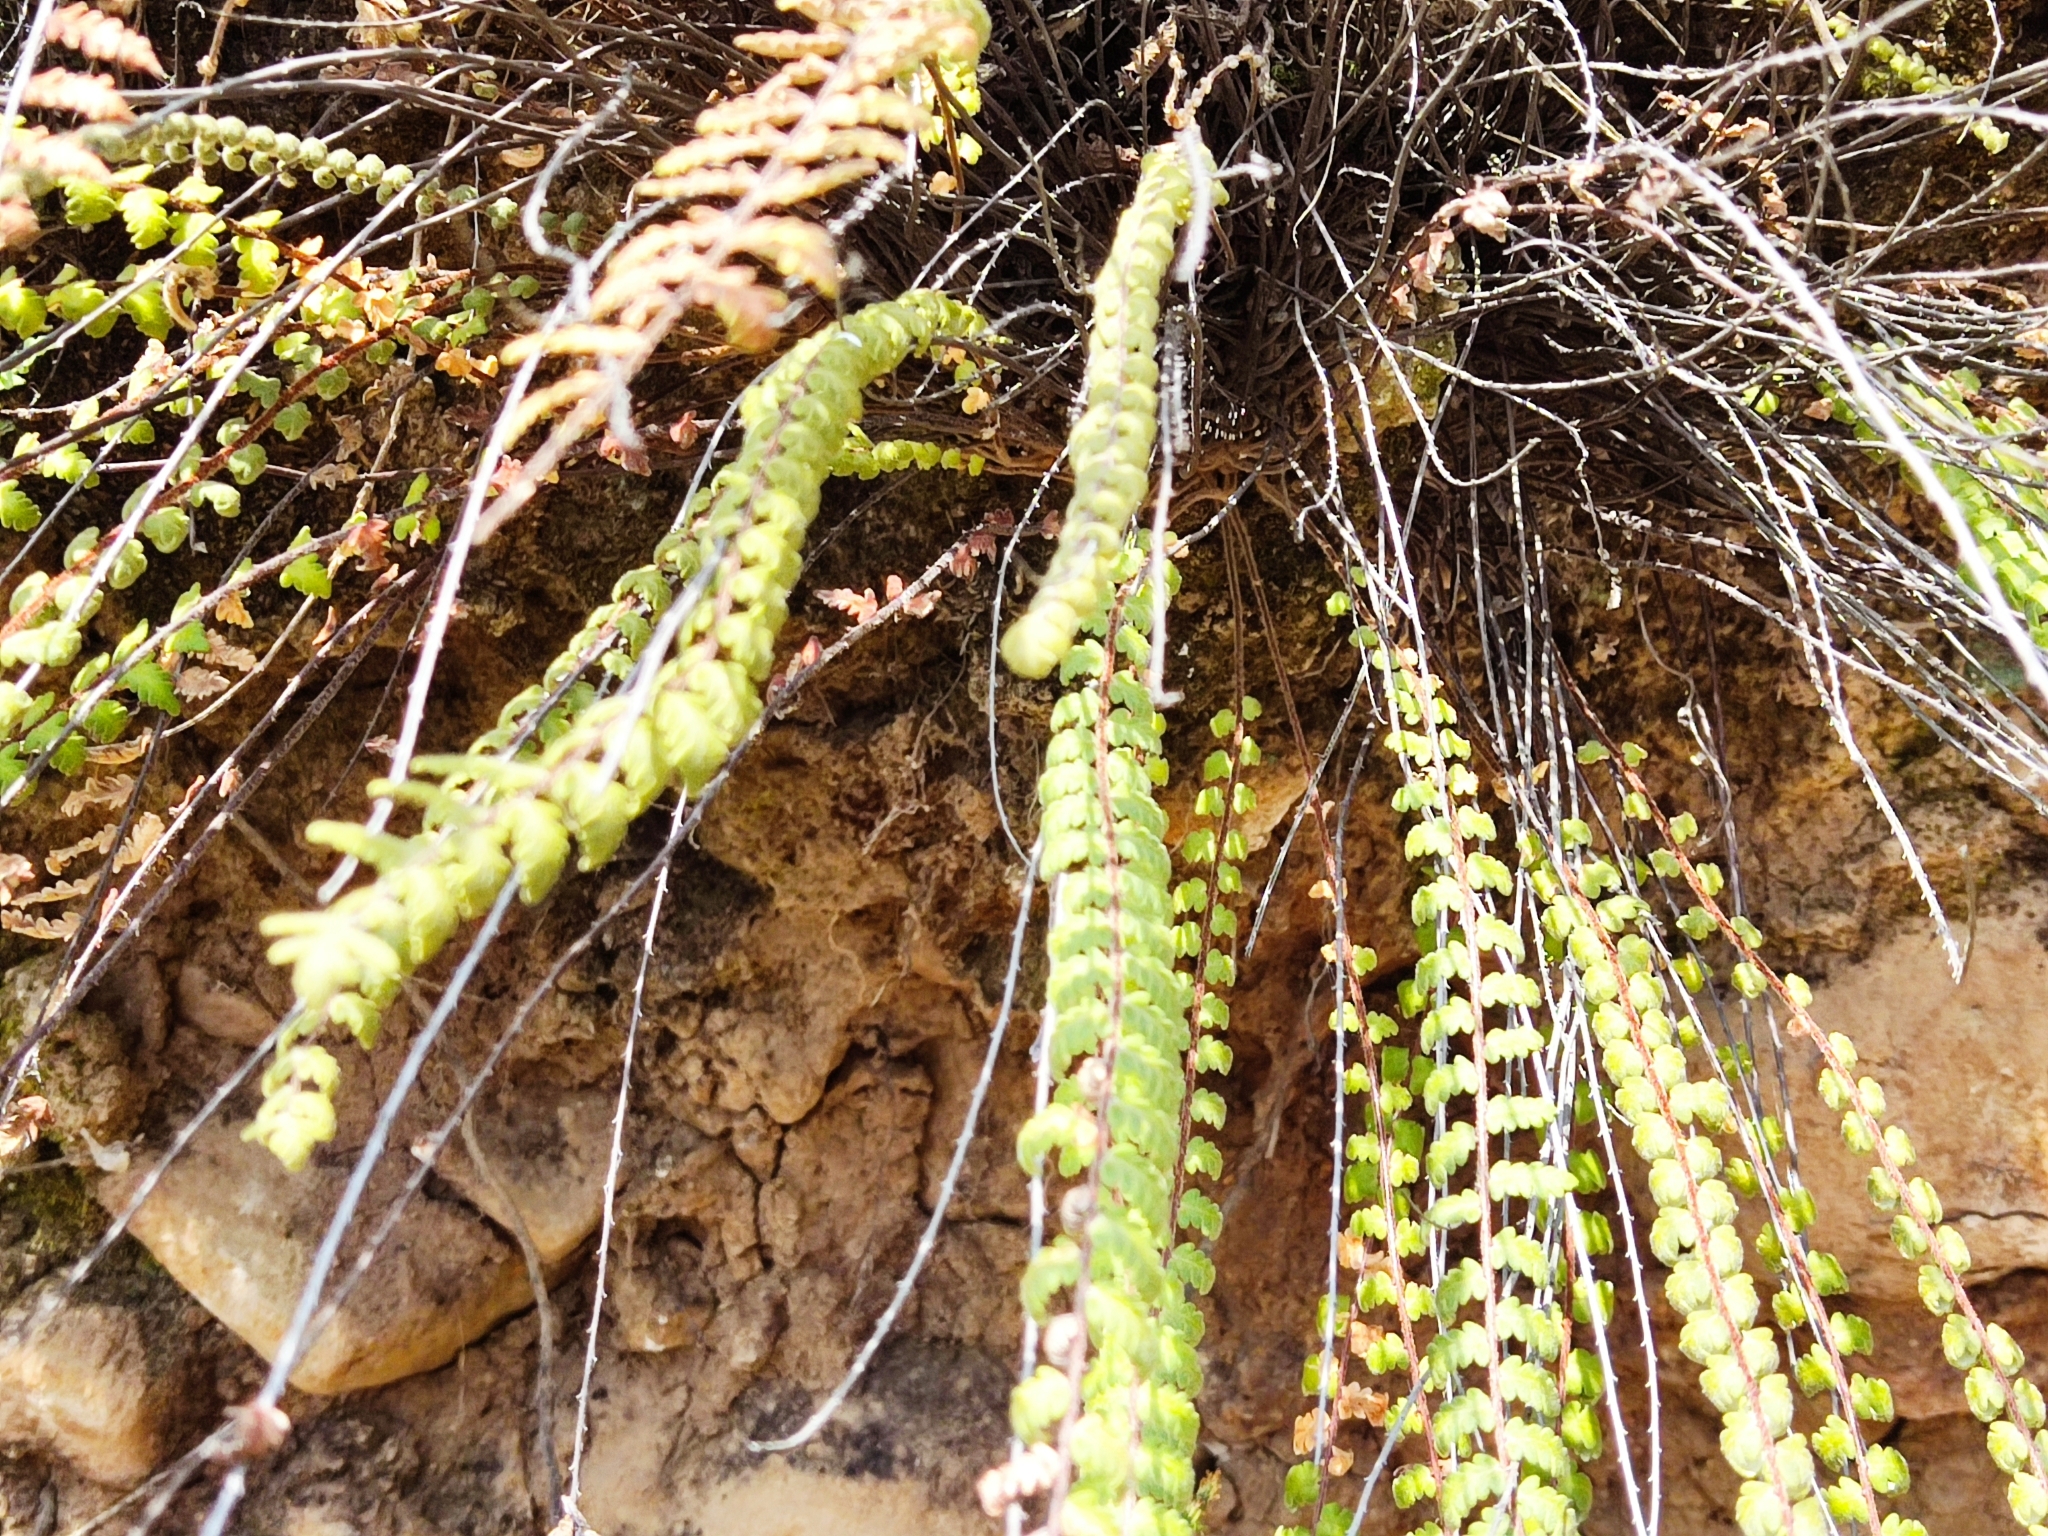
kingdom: Plantae
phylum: Tracheophyta
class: Polypodiopsida
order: Polypodiales
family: Pteridaceae
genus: Myriopteris
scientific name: Myriopteris aurea
